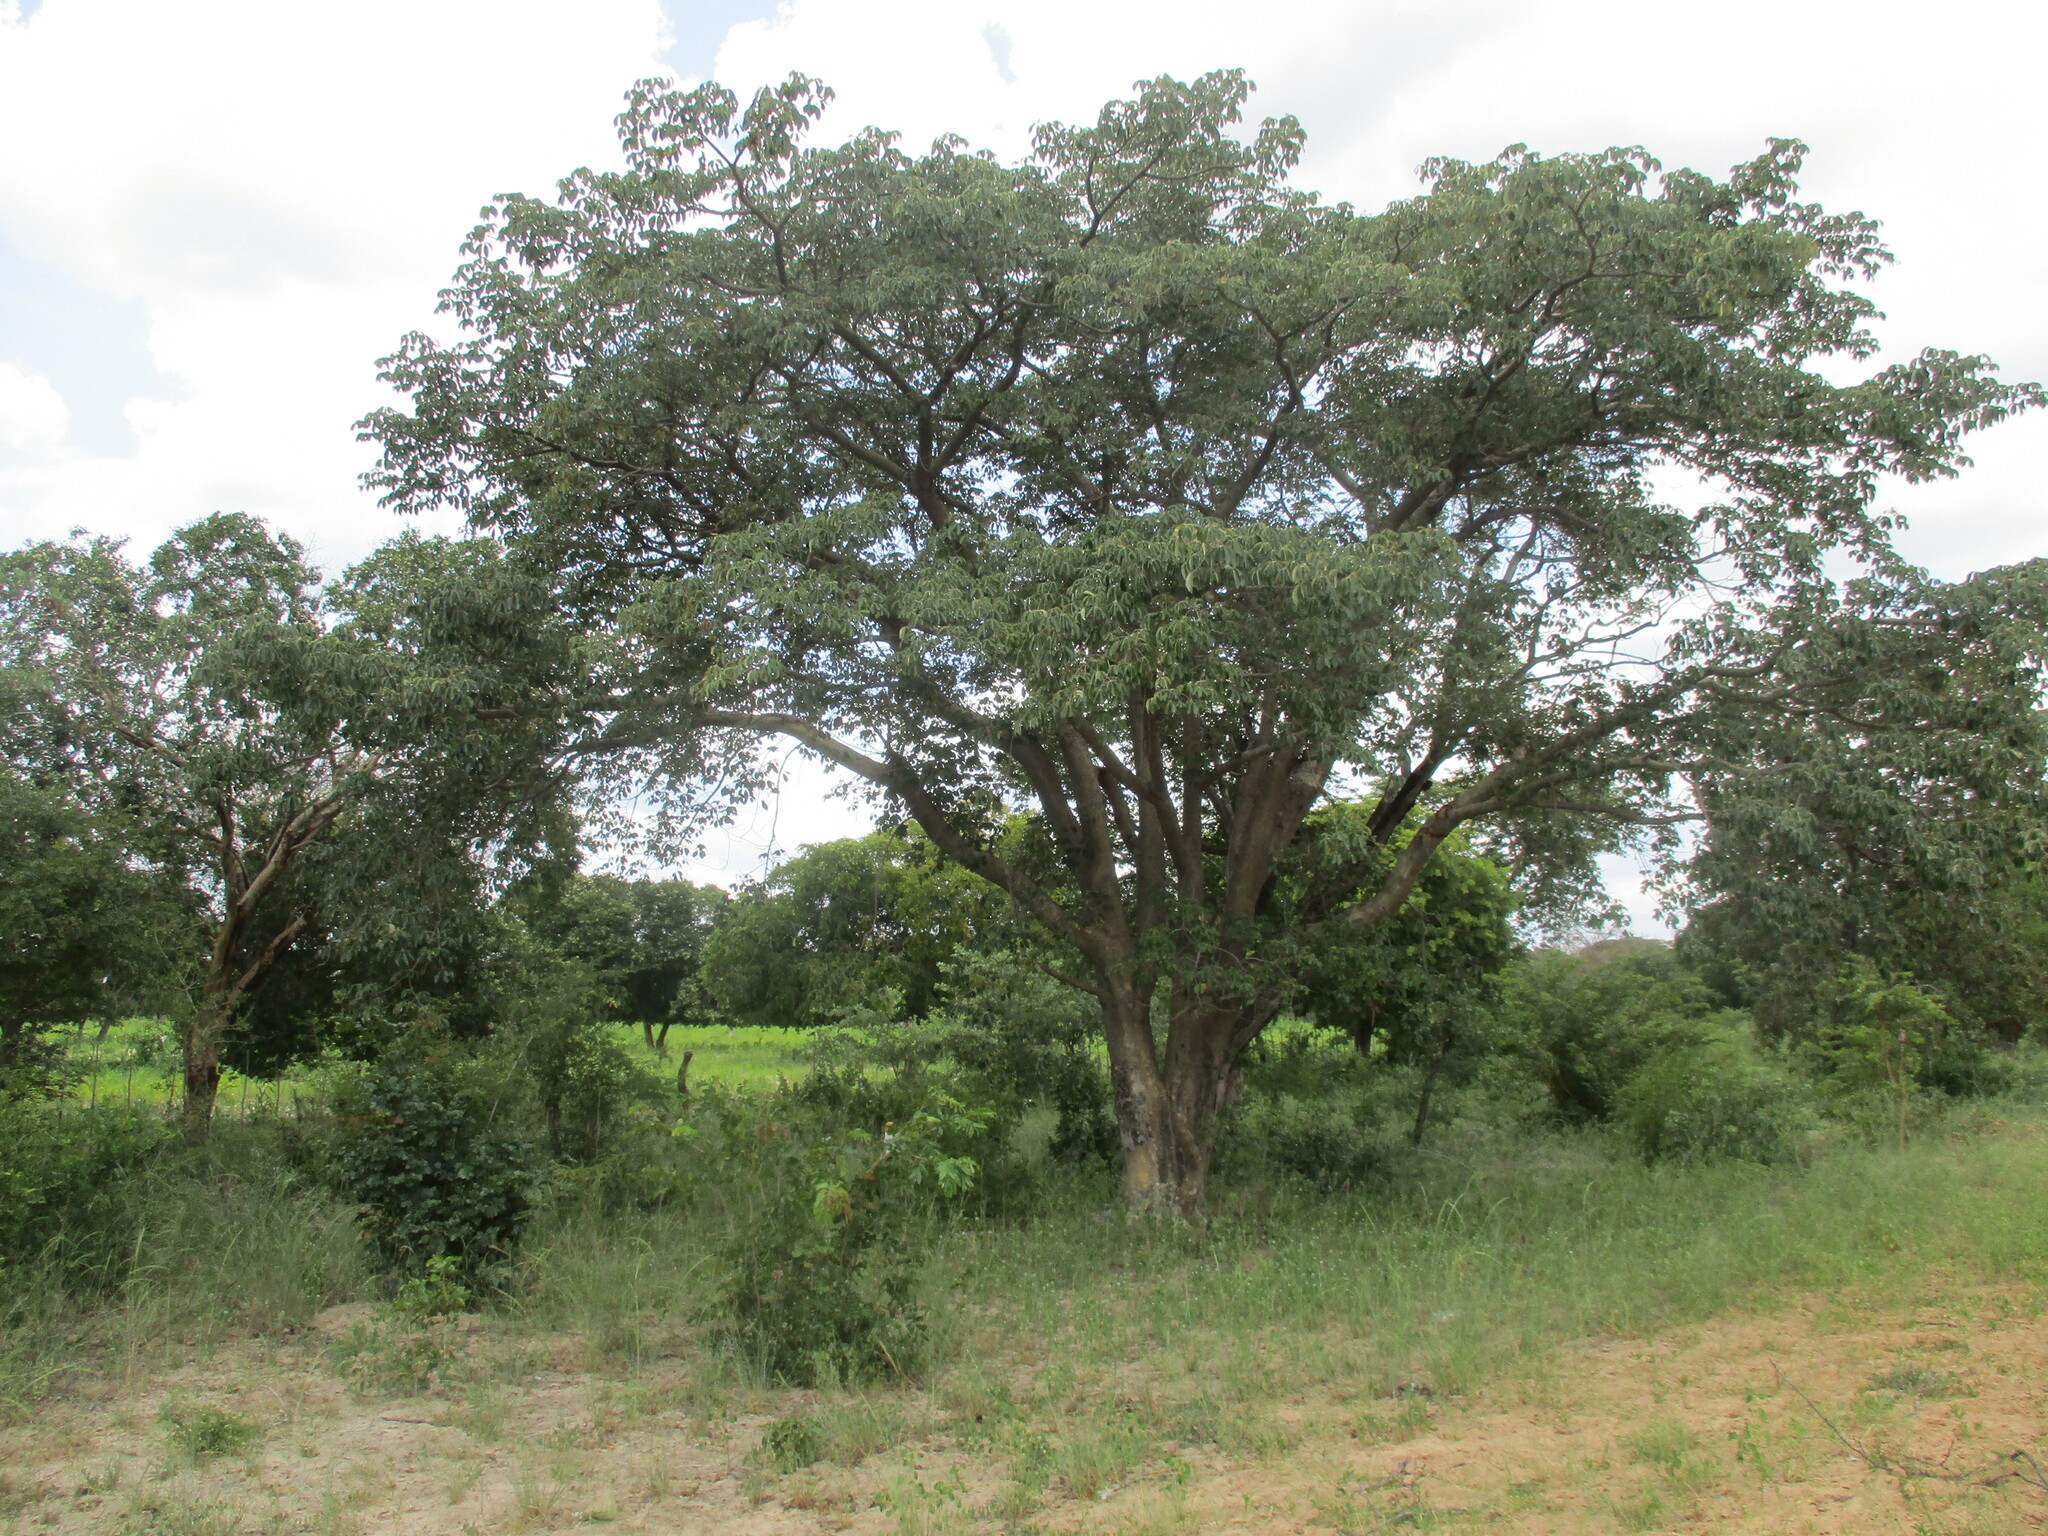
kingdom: Plantae
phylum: Tracheophyta
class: Magnoliopsida
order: Malpighiales
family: Euphorbiaceae
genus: Schinziophyton
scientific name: Schinziophyton rautanenii
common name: Manketti
